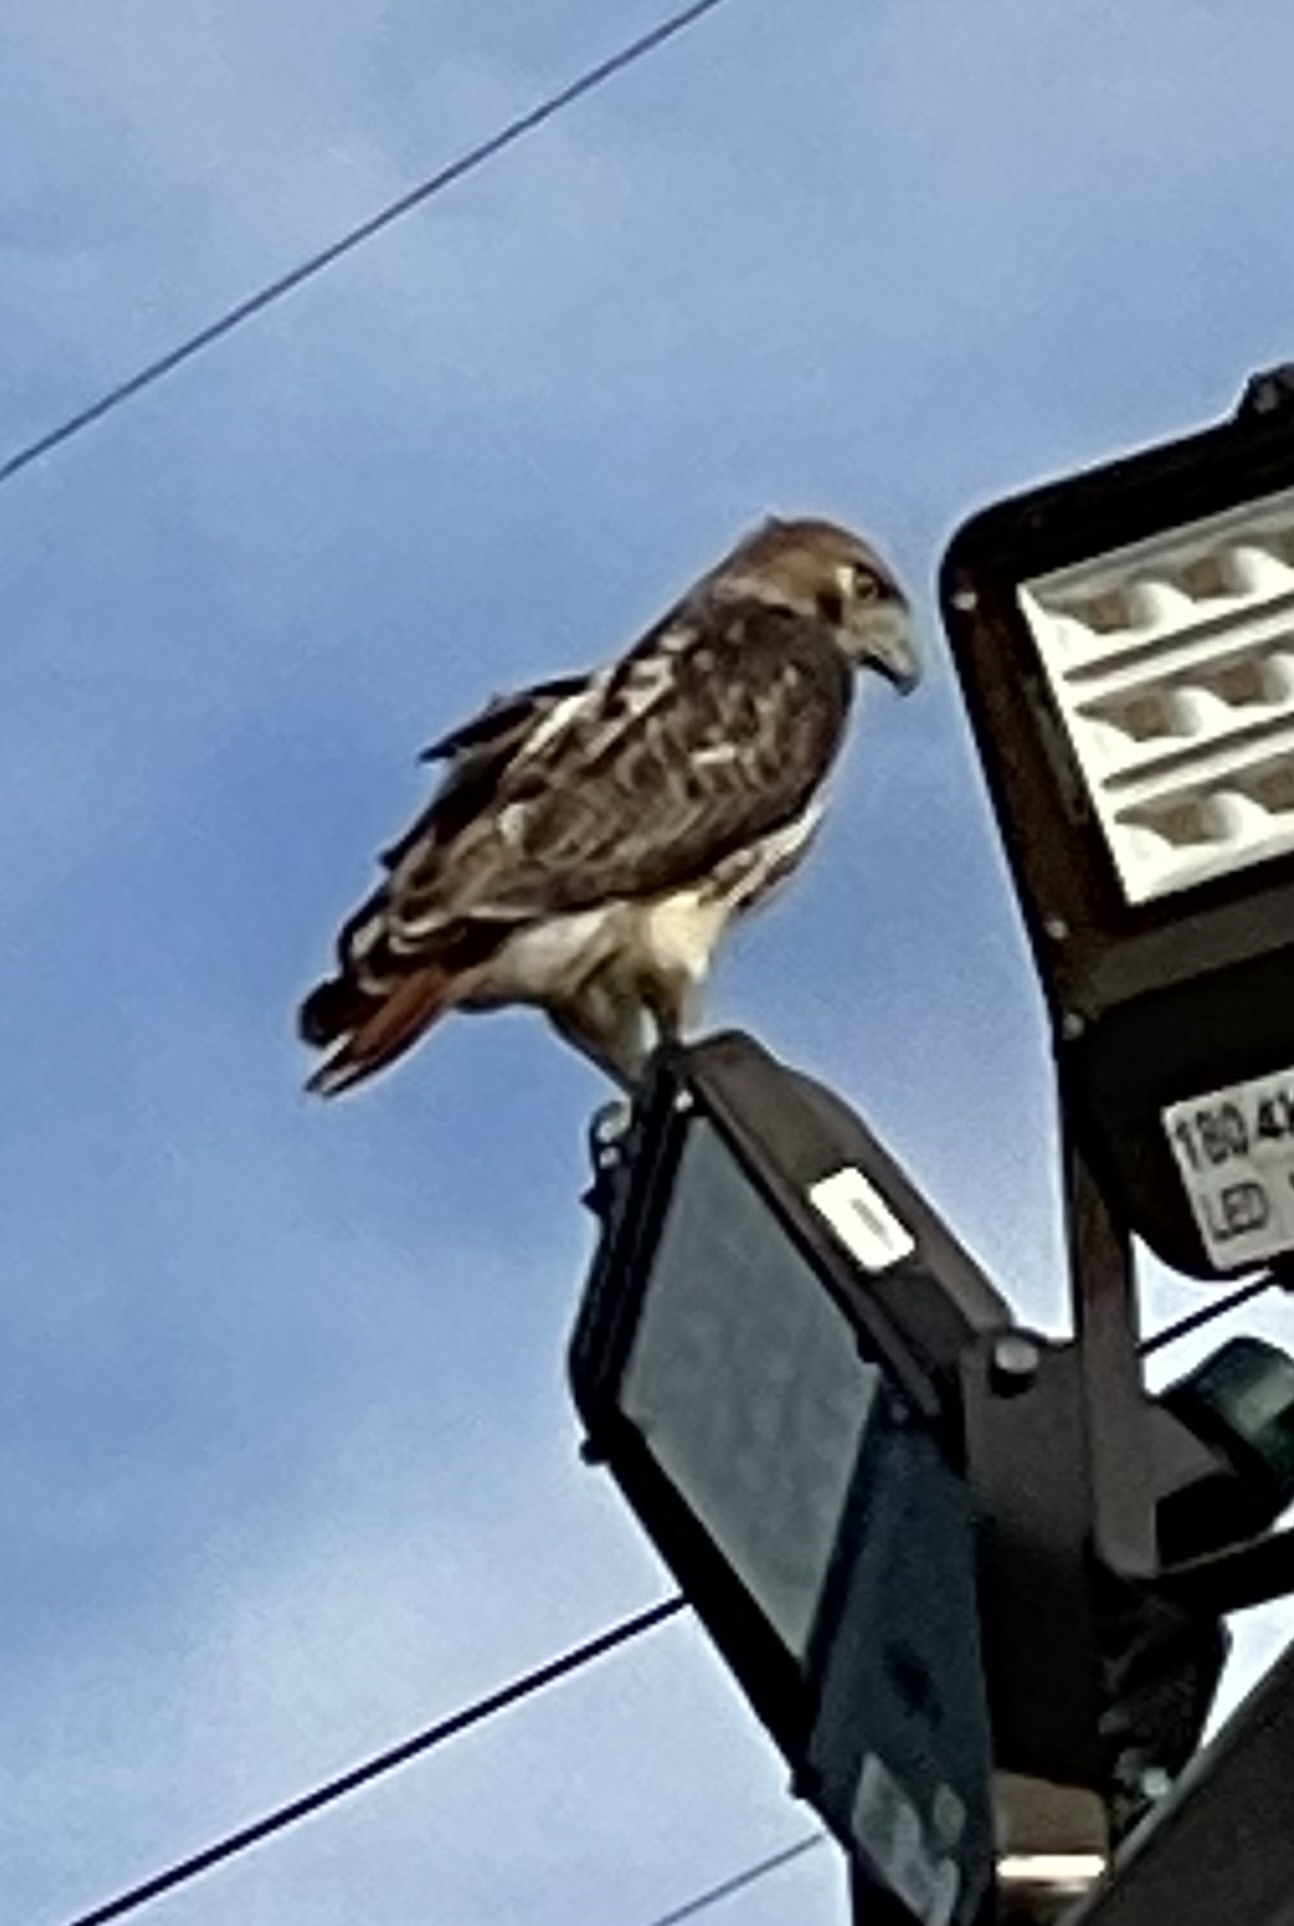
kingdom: Animalia
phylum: Chordata
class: Aves
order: Accipitriformes
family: Accipitridae
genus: Buteo
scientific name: Buteo jamaicensis
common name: Red-tailed hawk
